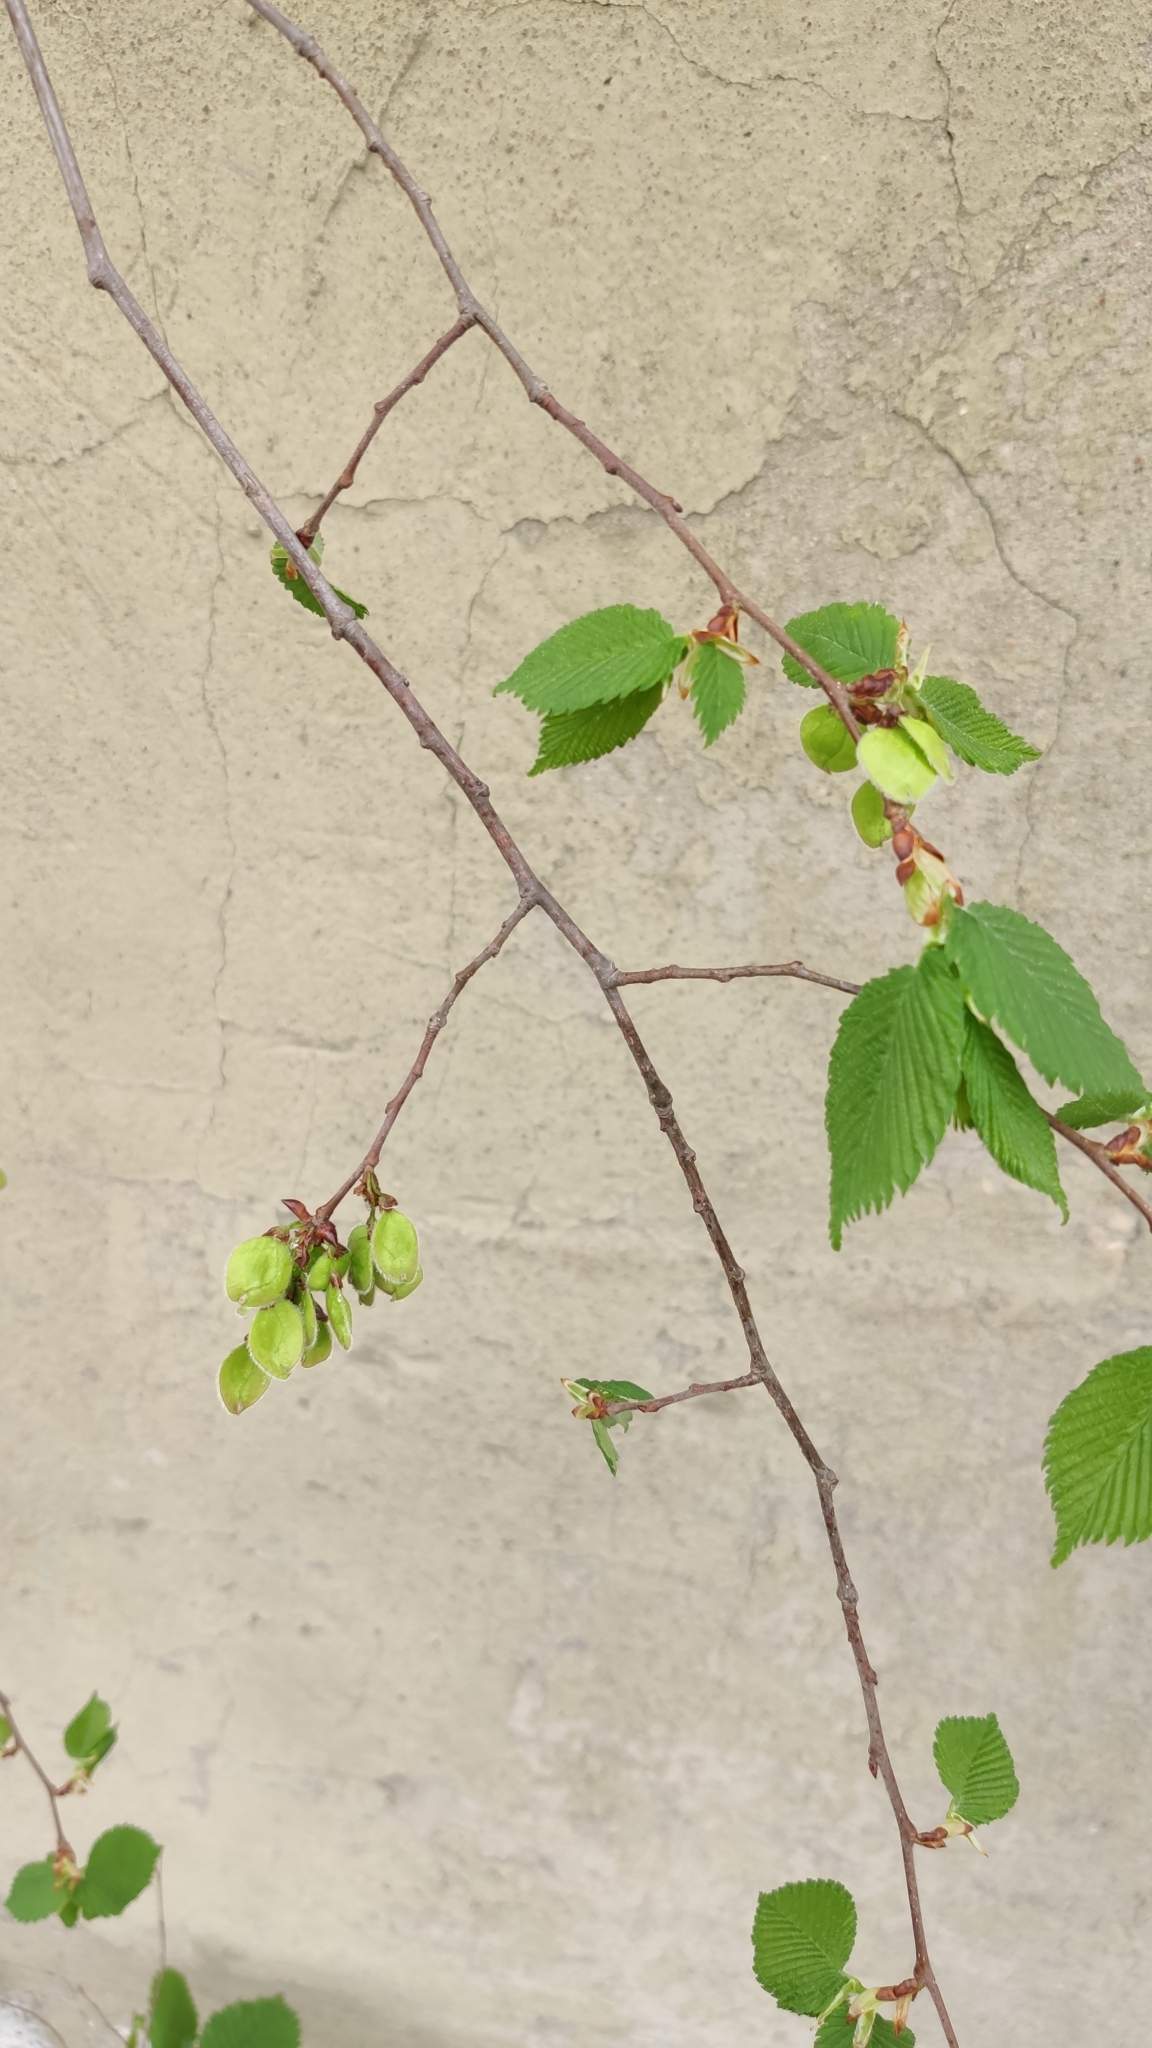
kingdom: Plantae
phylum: Tracheophyta
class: Magnoliopsida
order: Rosales
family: Ulmaceae
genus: Ulmus
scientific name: Ulmus laevis
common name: European white-elm
